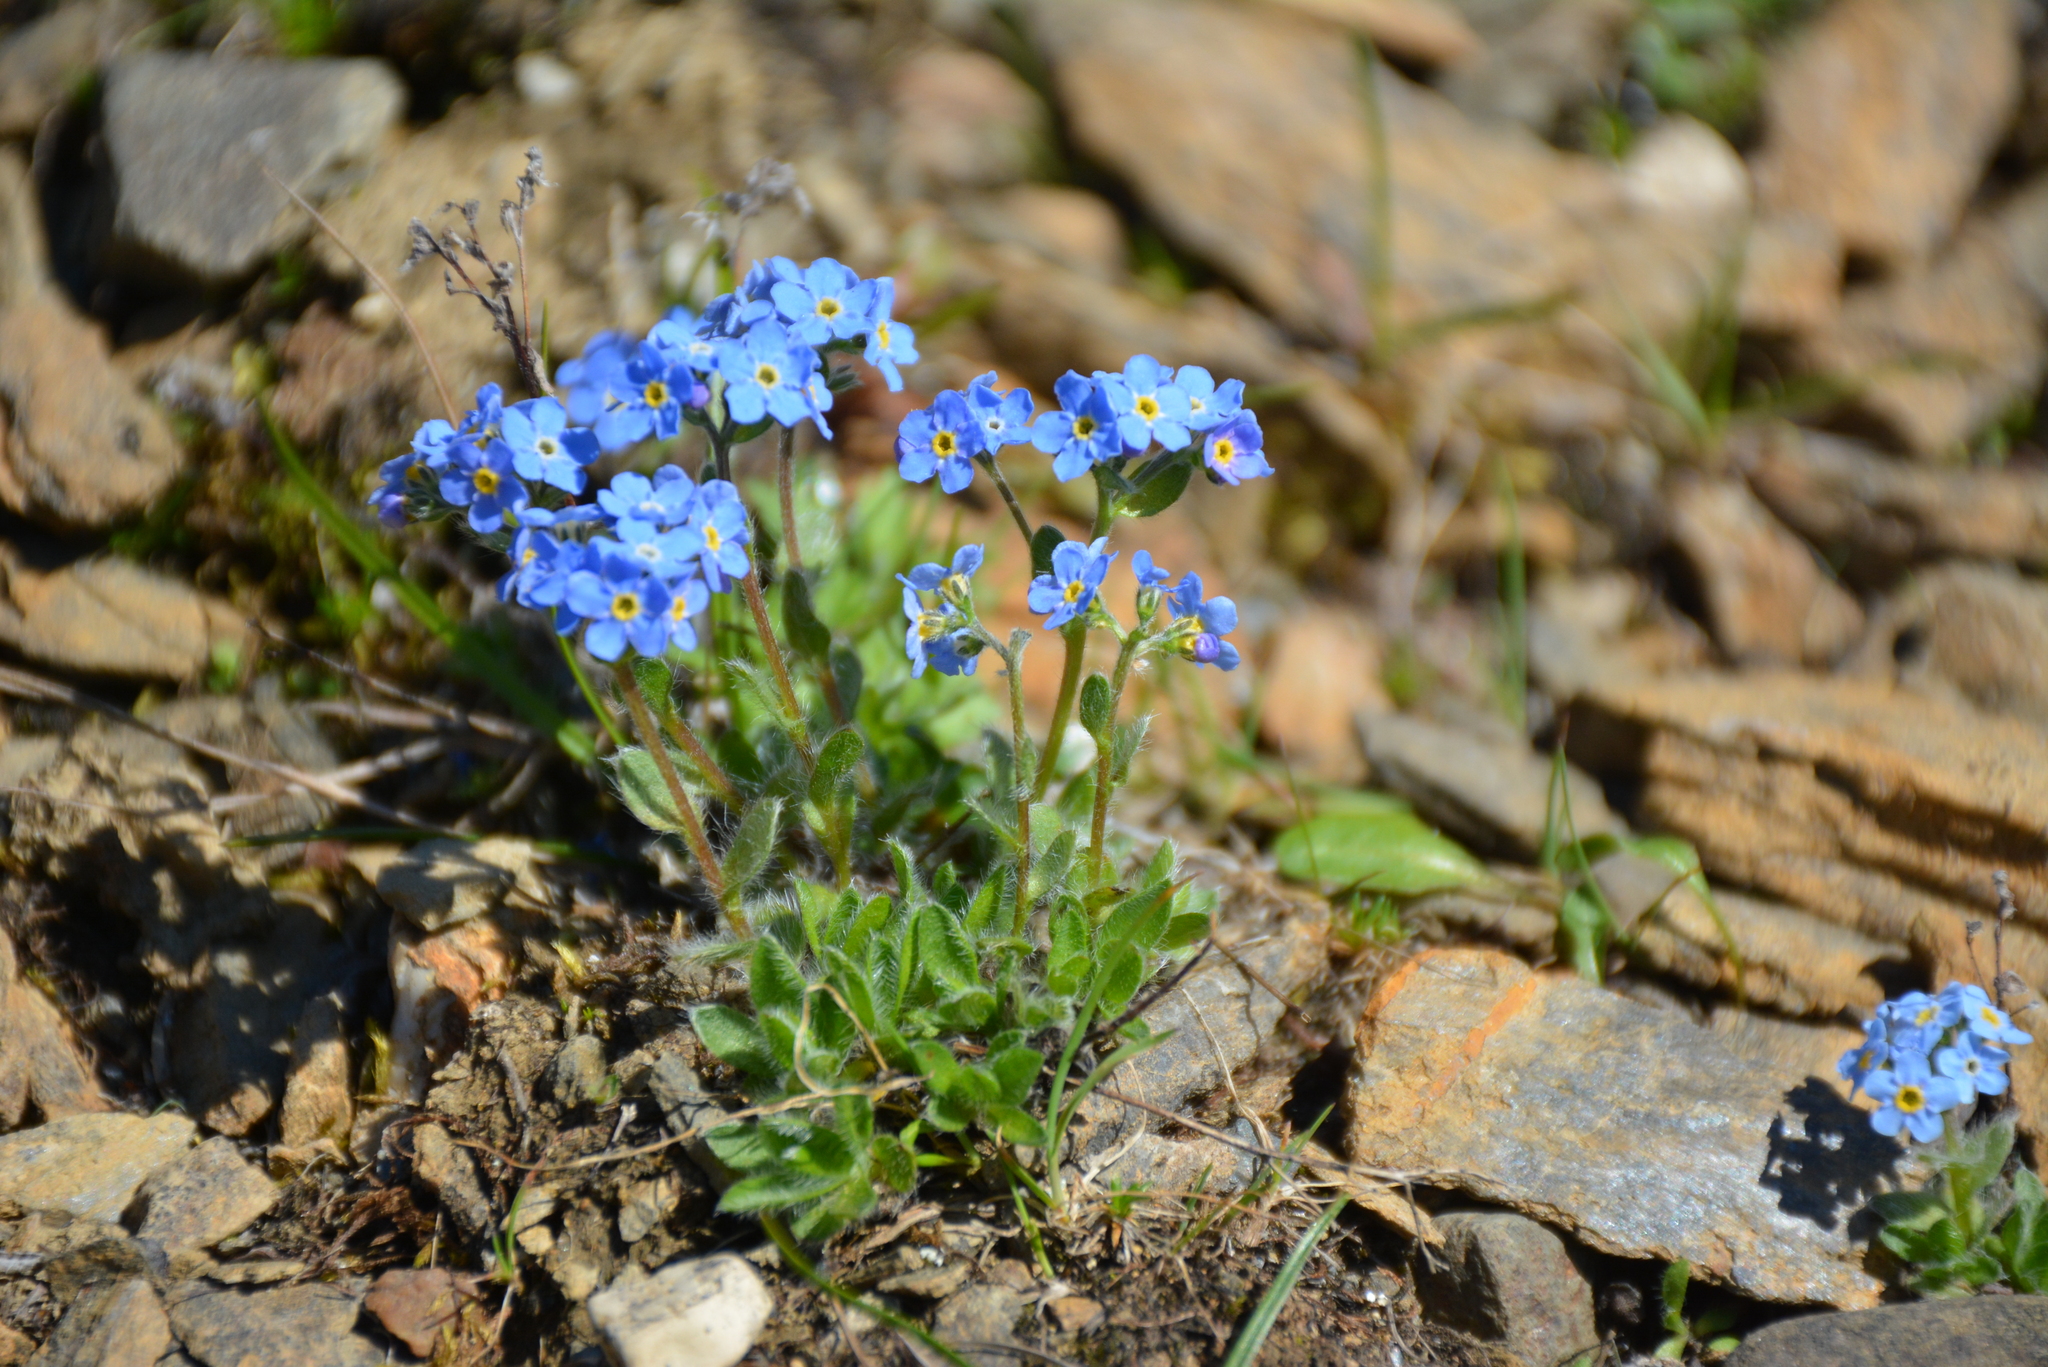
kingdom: Plantae
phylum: Tracheophyta
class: Magnoliopsida
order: Boraginales
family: Boraginaceae
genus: Eritrichium
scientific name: Eritrichium villosum
